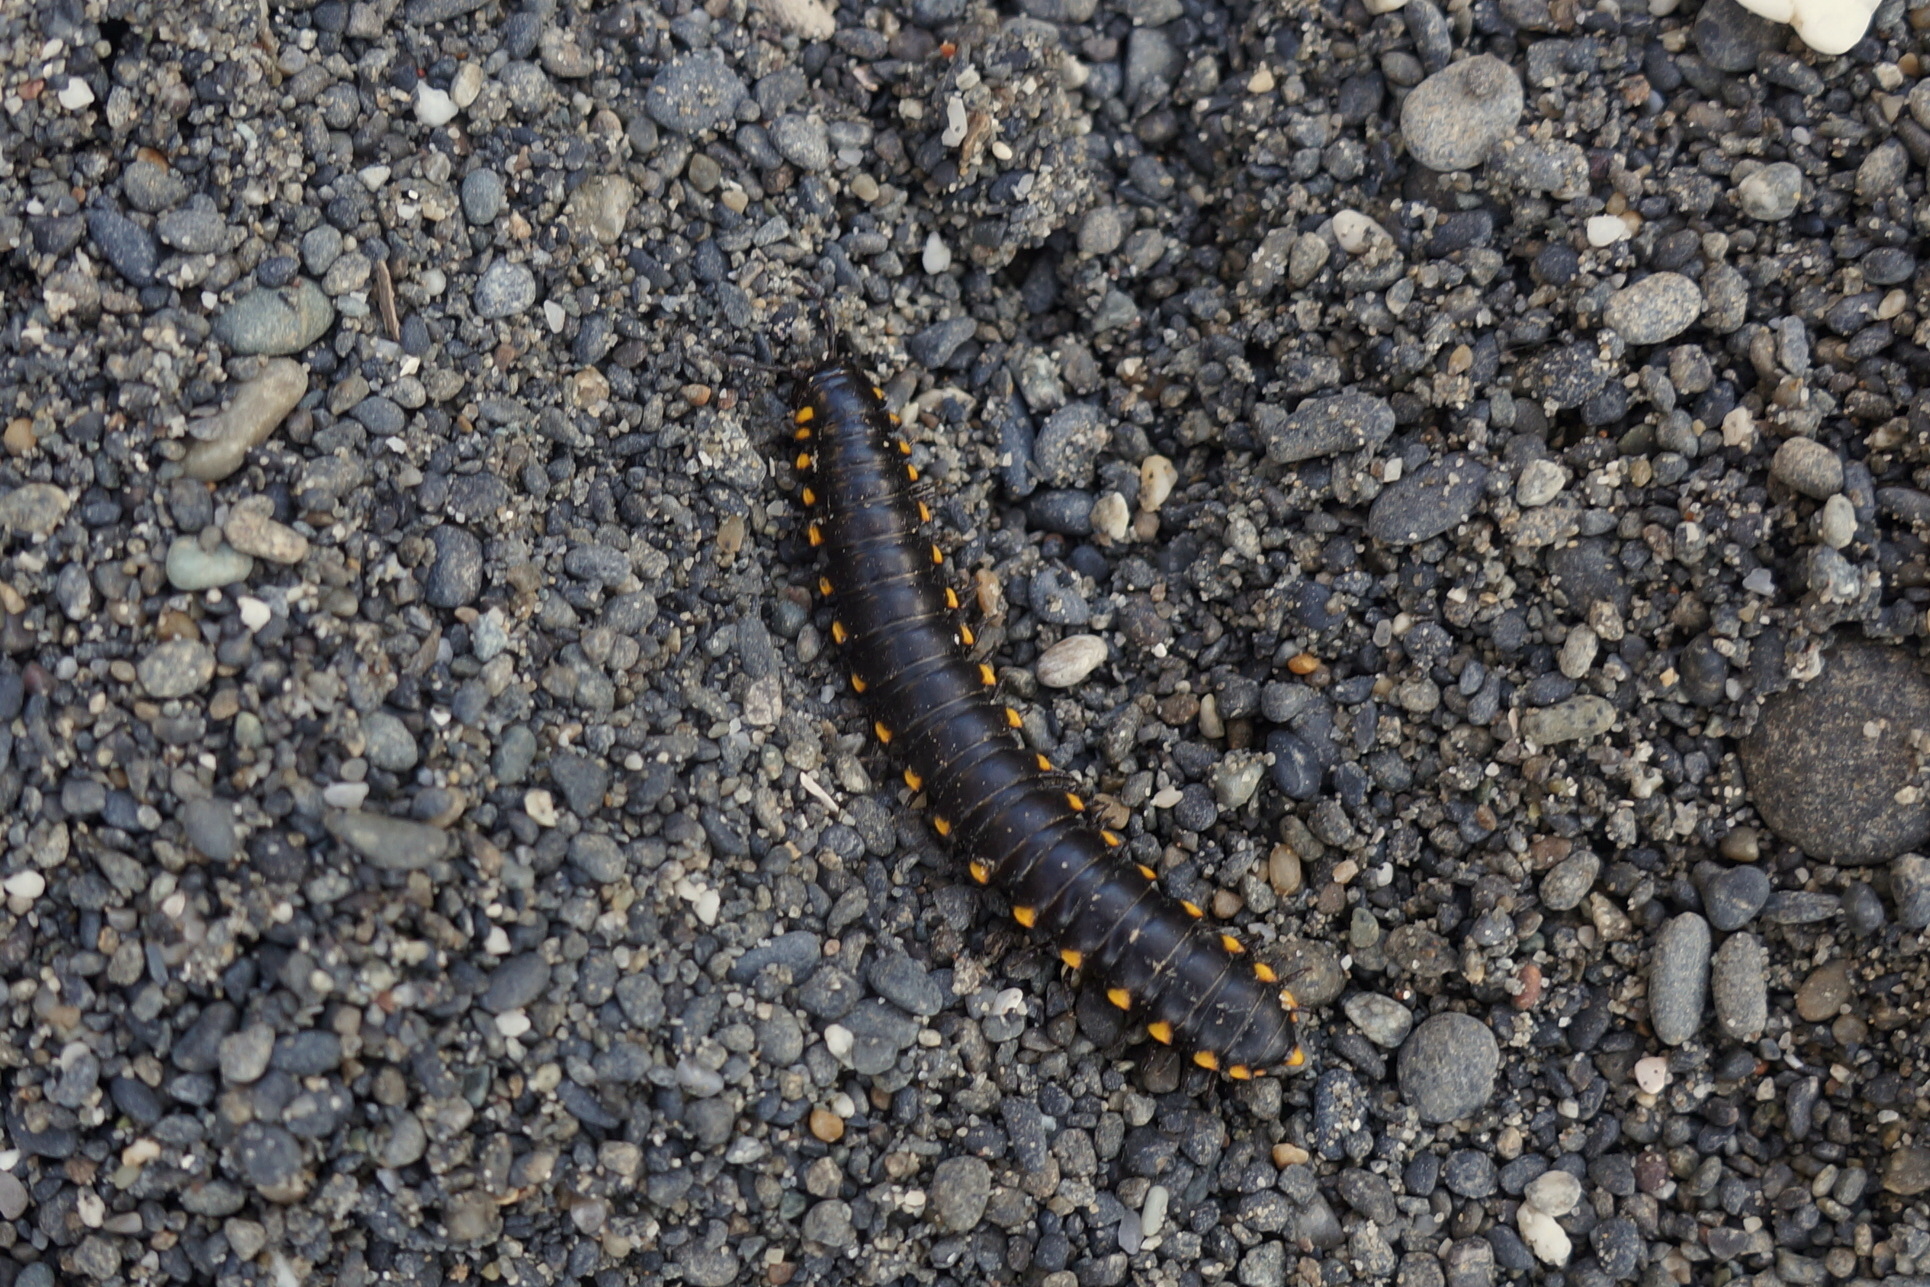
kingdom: Animalia
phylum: Arthropoda
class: Diplopoda
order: Polydesmida
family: Xystodesmidae
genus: Harpaphe
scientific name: Harpaphe haydeniana
